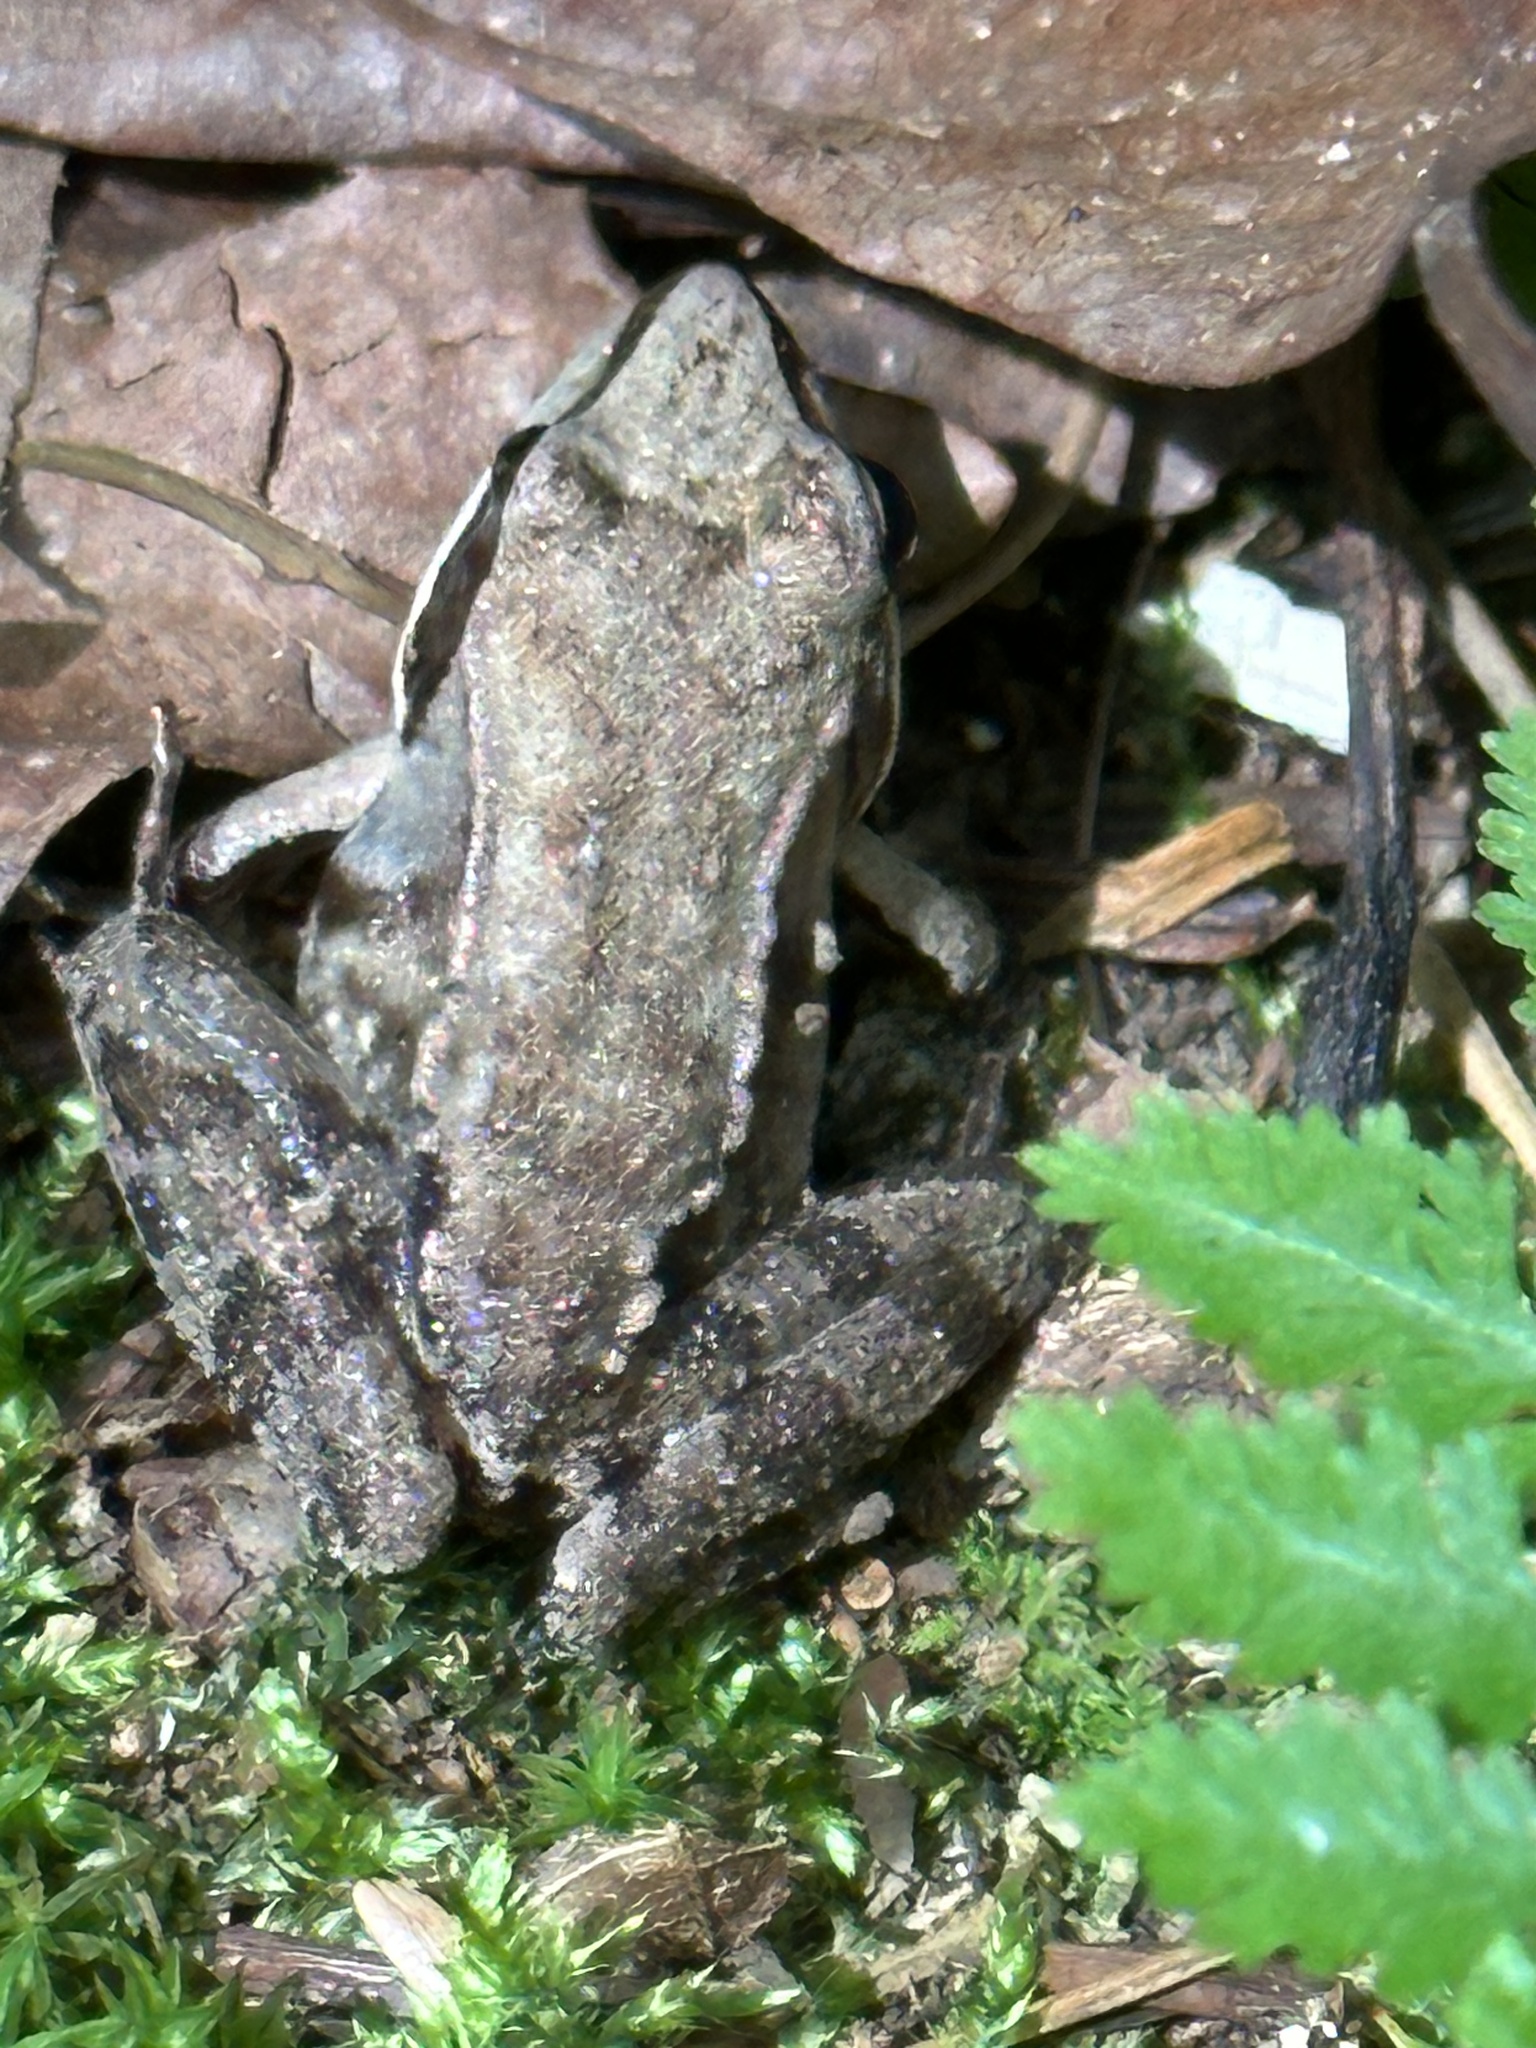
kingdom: Animalia
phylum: Chordata
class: Amphibia
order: Anura
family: Ranidae
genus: Lithobates
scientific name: Lithobates sylvaticus
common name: Wood frog
